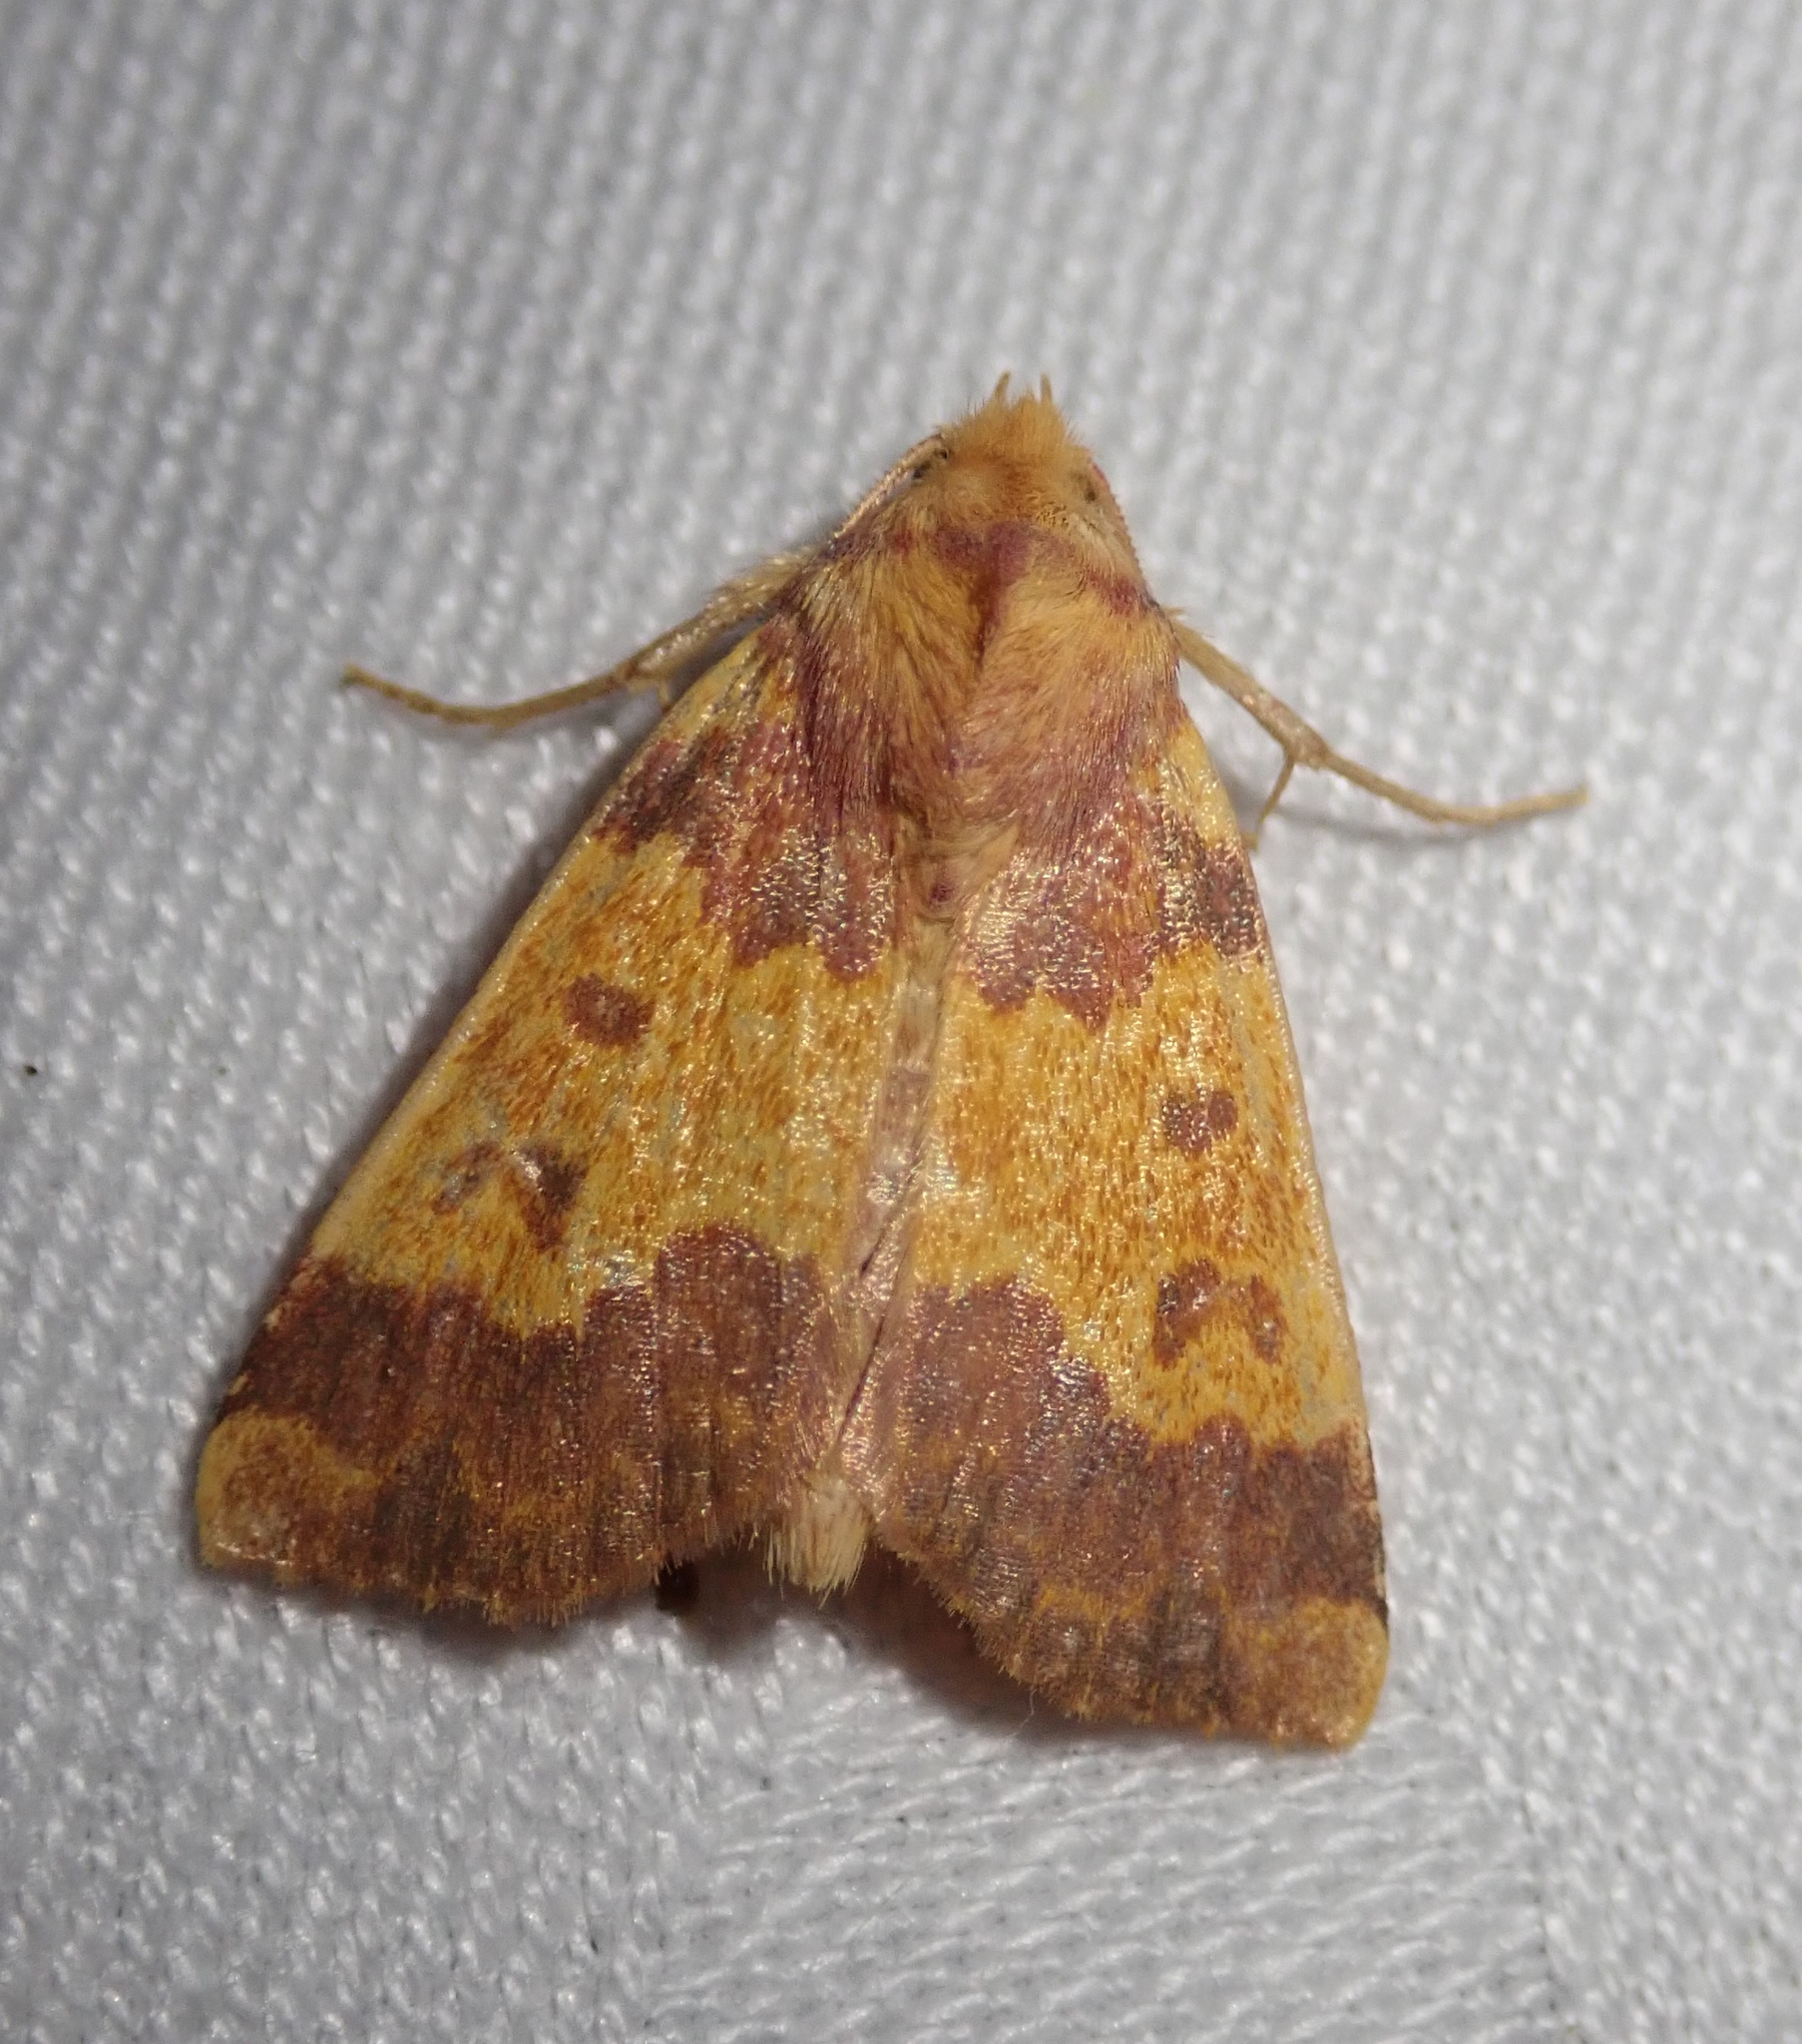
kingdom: Animalia
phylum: Arthropoda
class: Insecta
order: Lepidoptera
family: Noctuidae
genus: Tiliacea
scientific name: Tiliacea aurago
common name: Barred sallow
